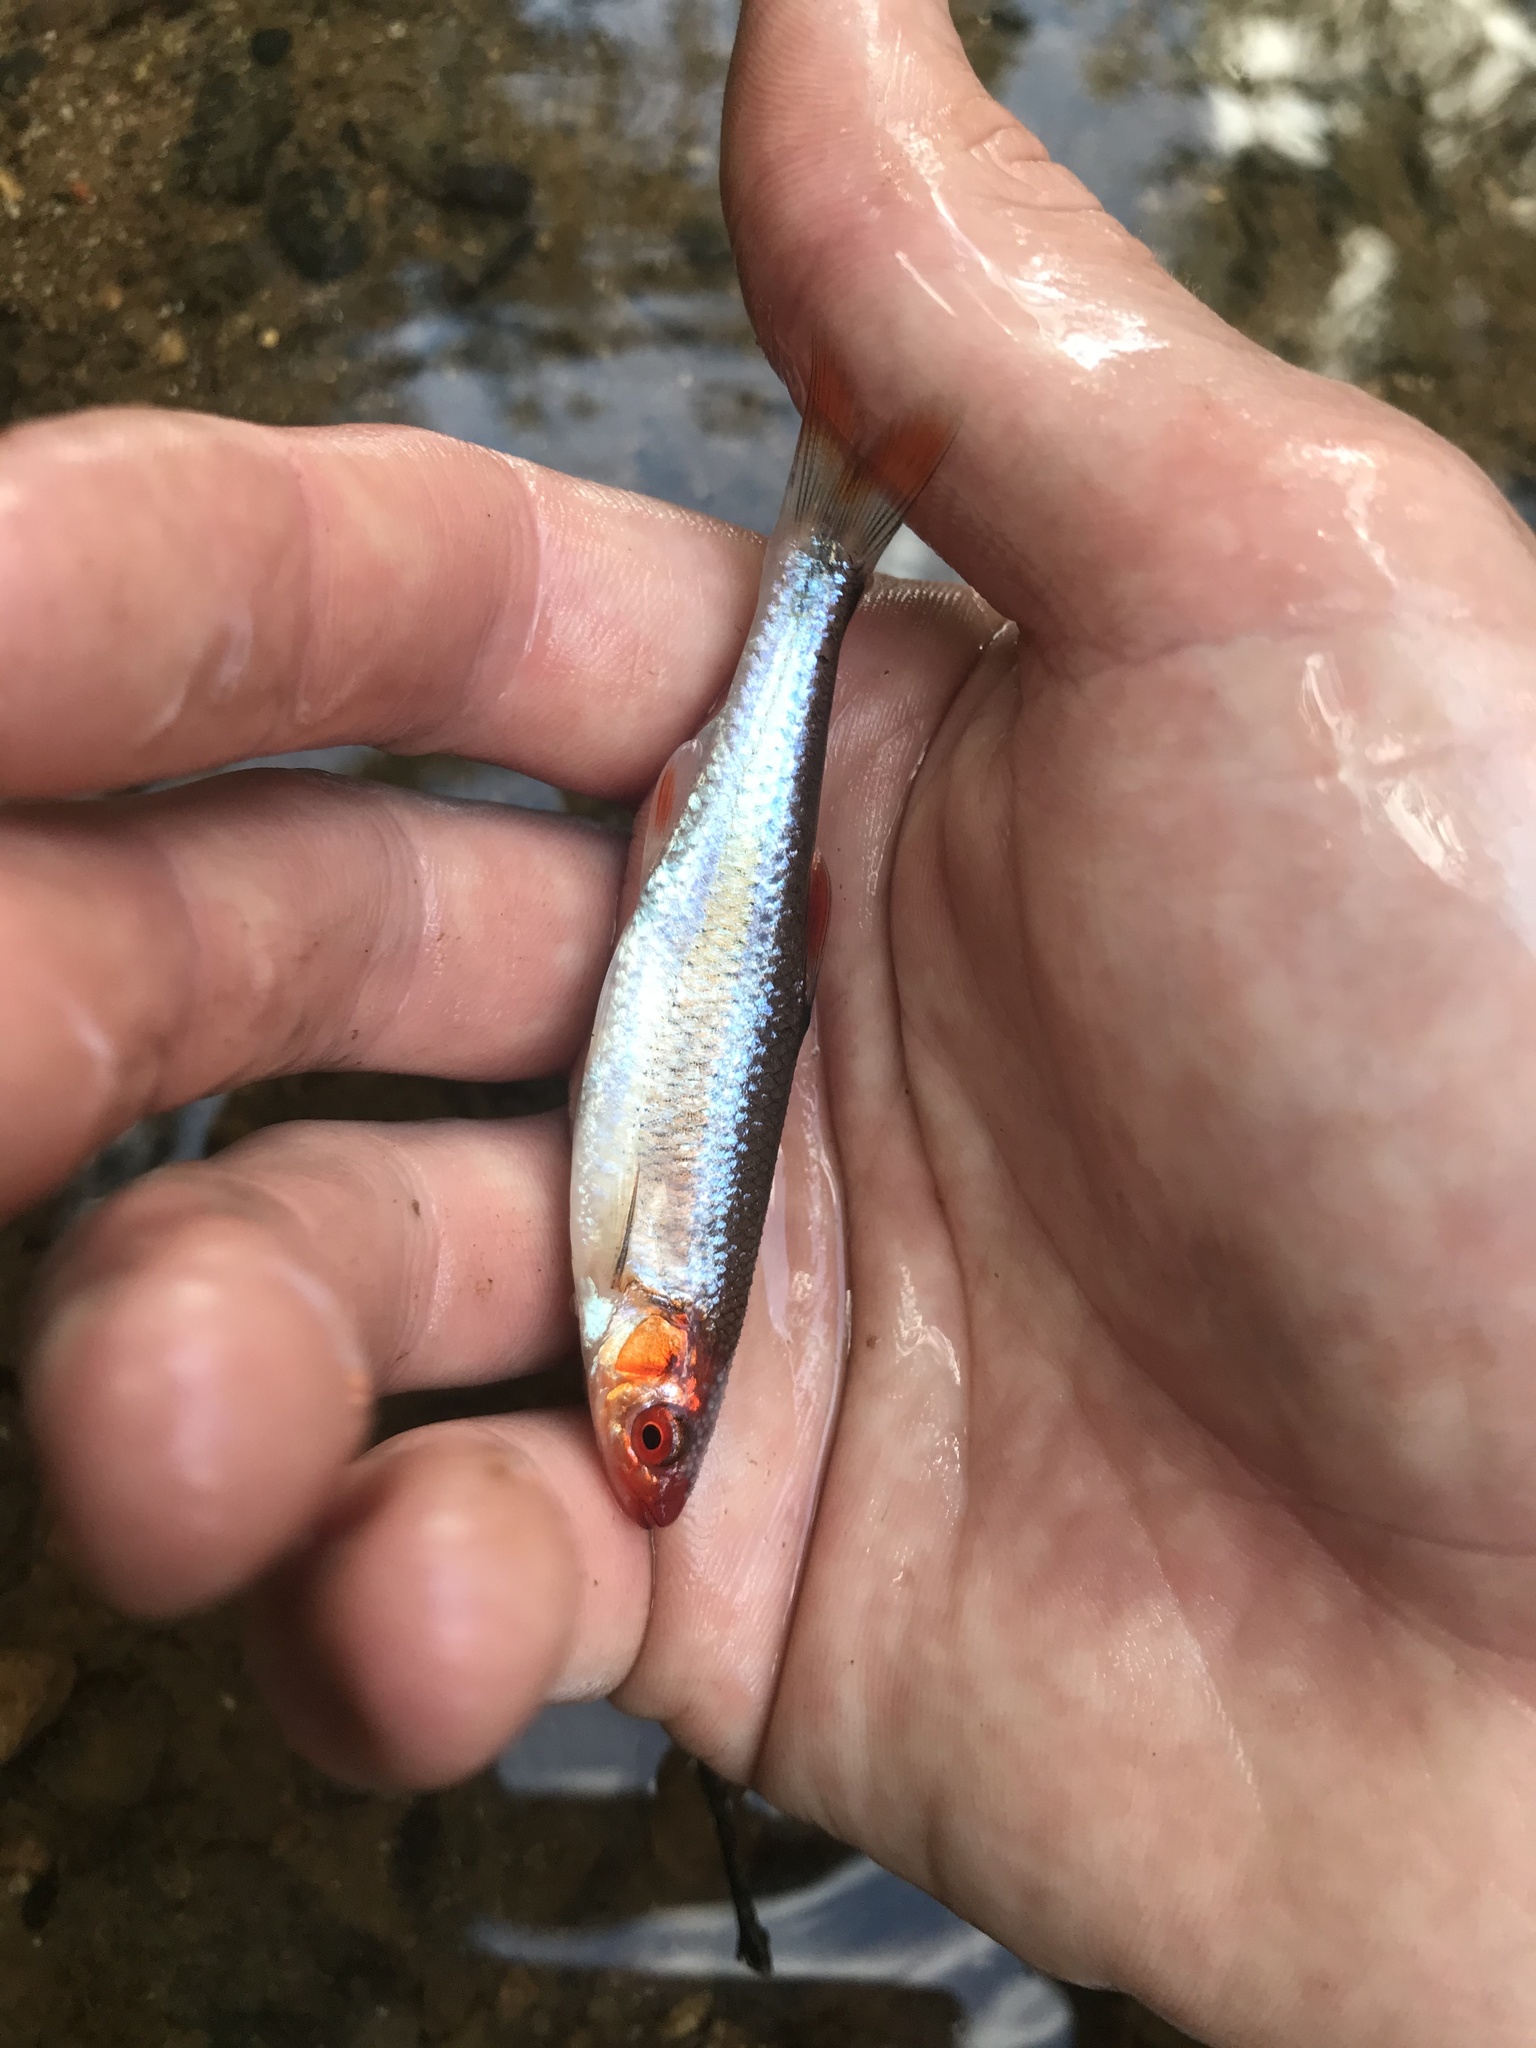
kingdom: Animalia
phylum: Chordata
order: Cypriniformes
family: Cyprinidae
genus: Lythrurus
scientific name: Lythrurus matutinus
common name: Pinewoods shiner
